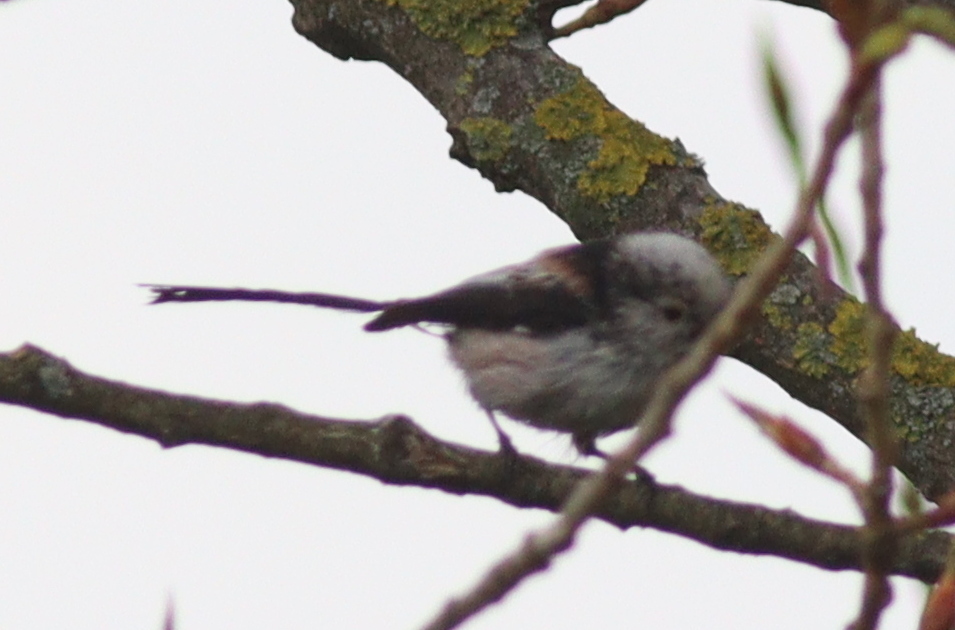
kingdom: Animalia
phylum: Chordata
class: Aves
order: Passeriformes
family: Aegithalidae
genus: Aegithalos
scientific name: Aegithalos caudatus
